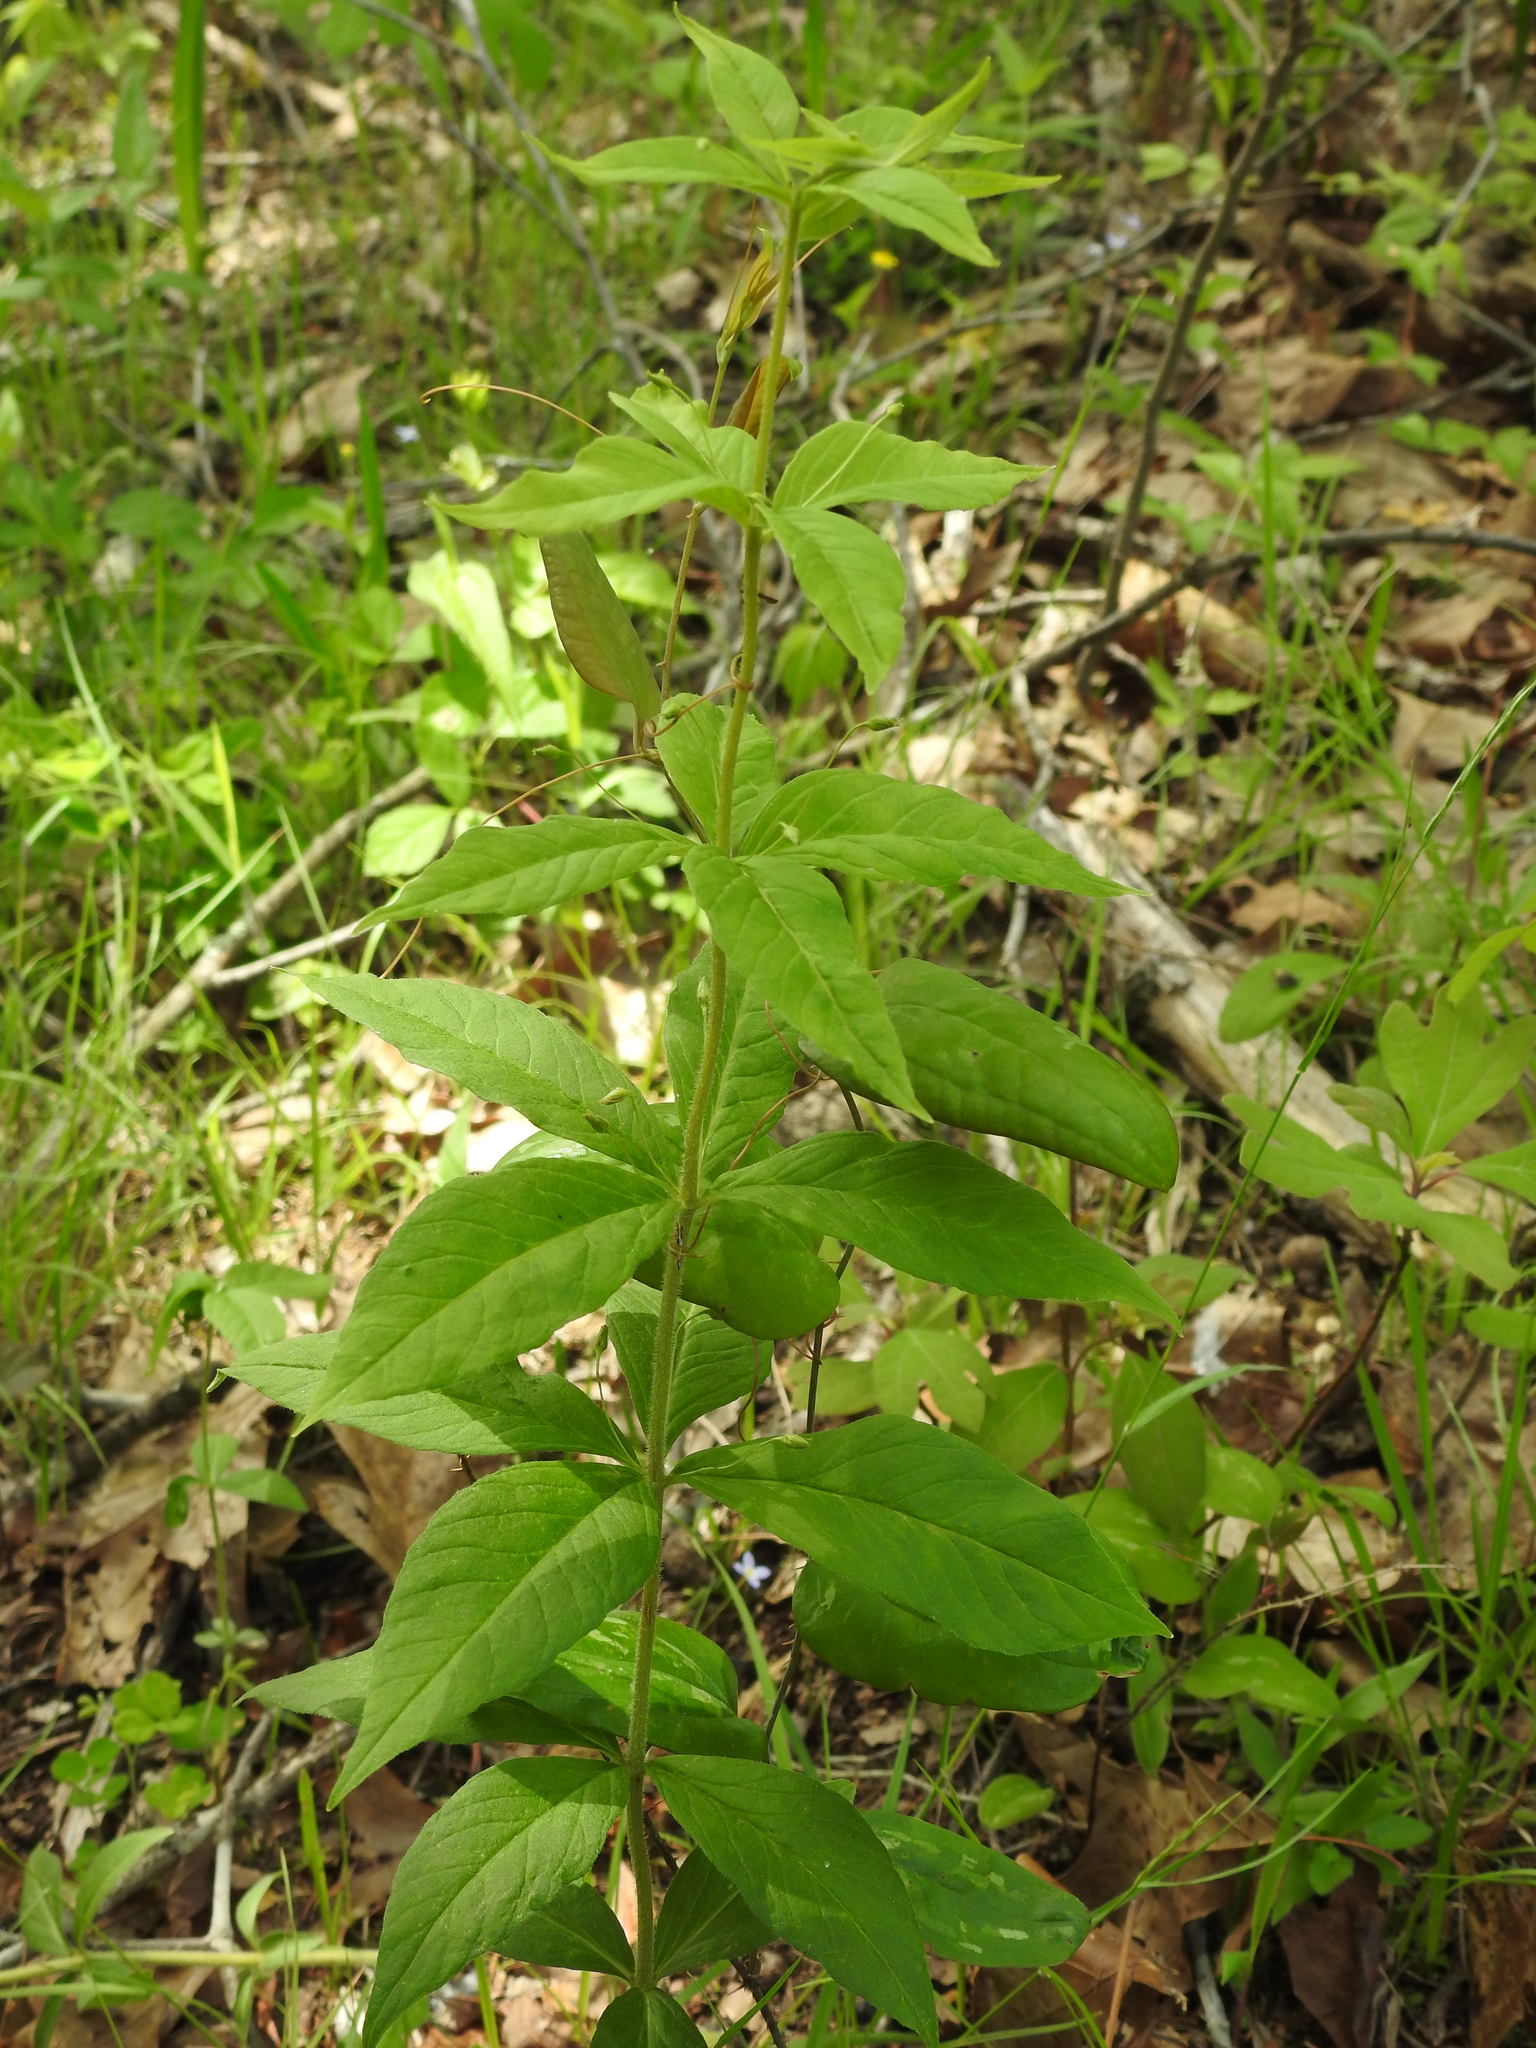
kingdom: Plantae
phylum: Tracheophyta
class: Magnoliopsida
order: Ericales
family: Primulaceae
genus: Lysimachia
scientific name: Lysimachia quadrifolia
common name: Whorled loosestrife
